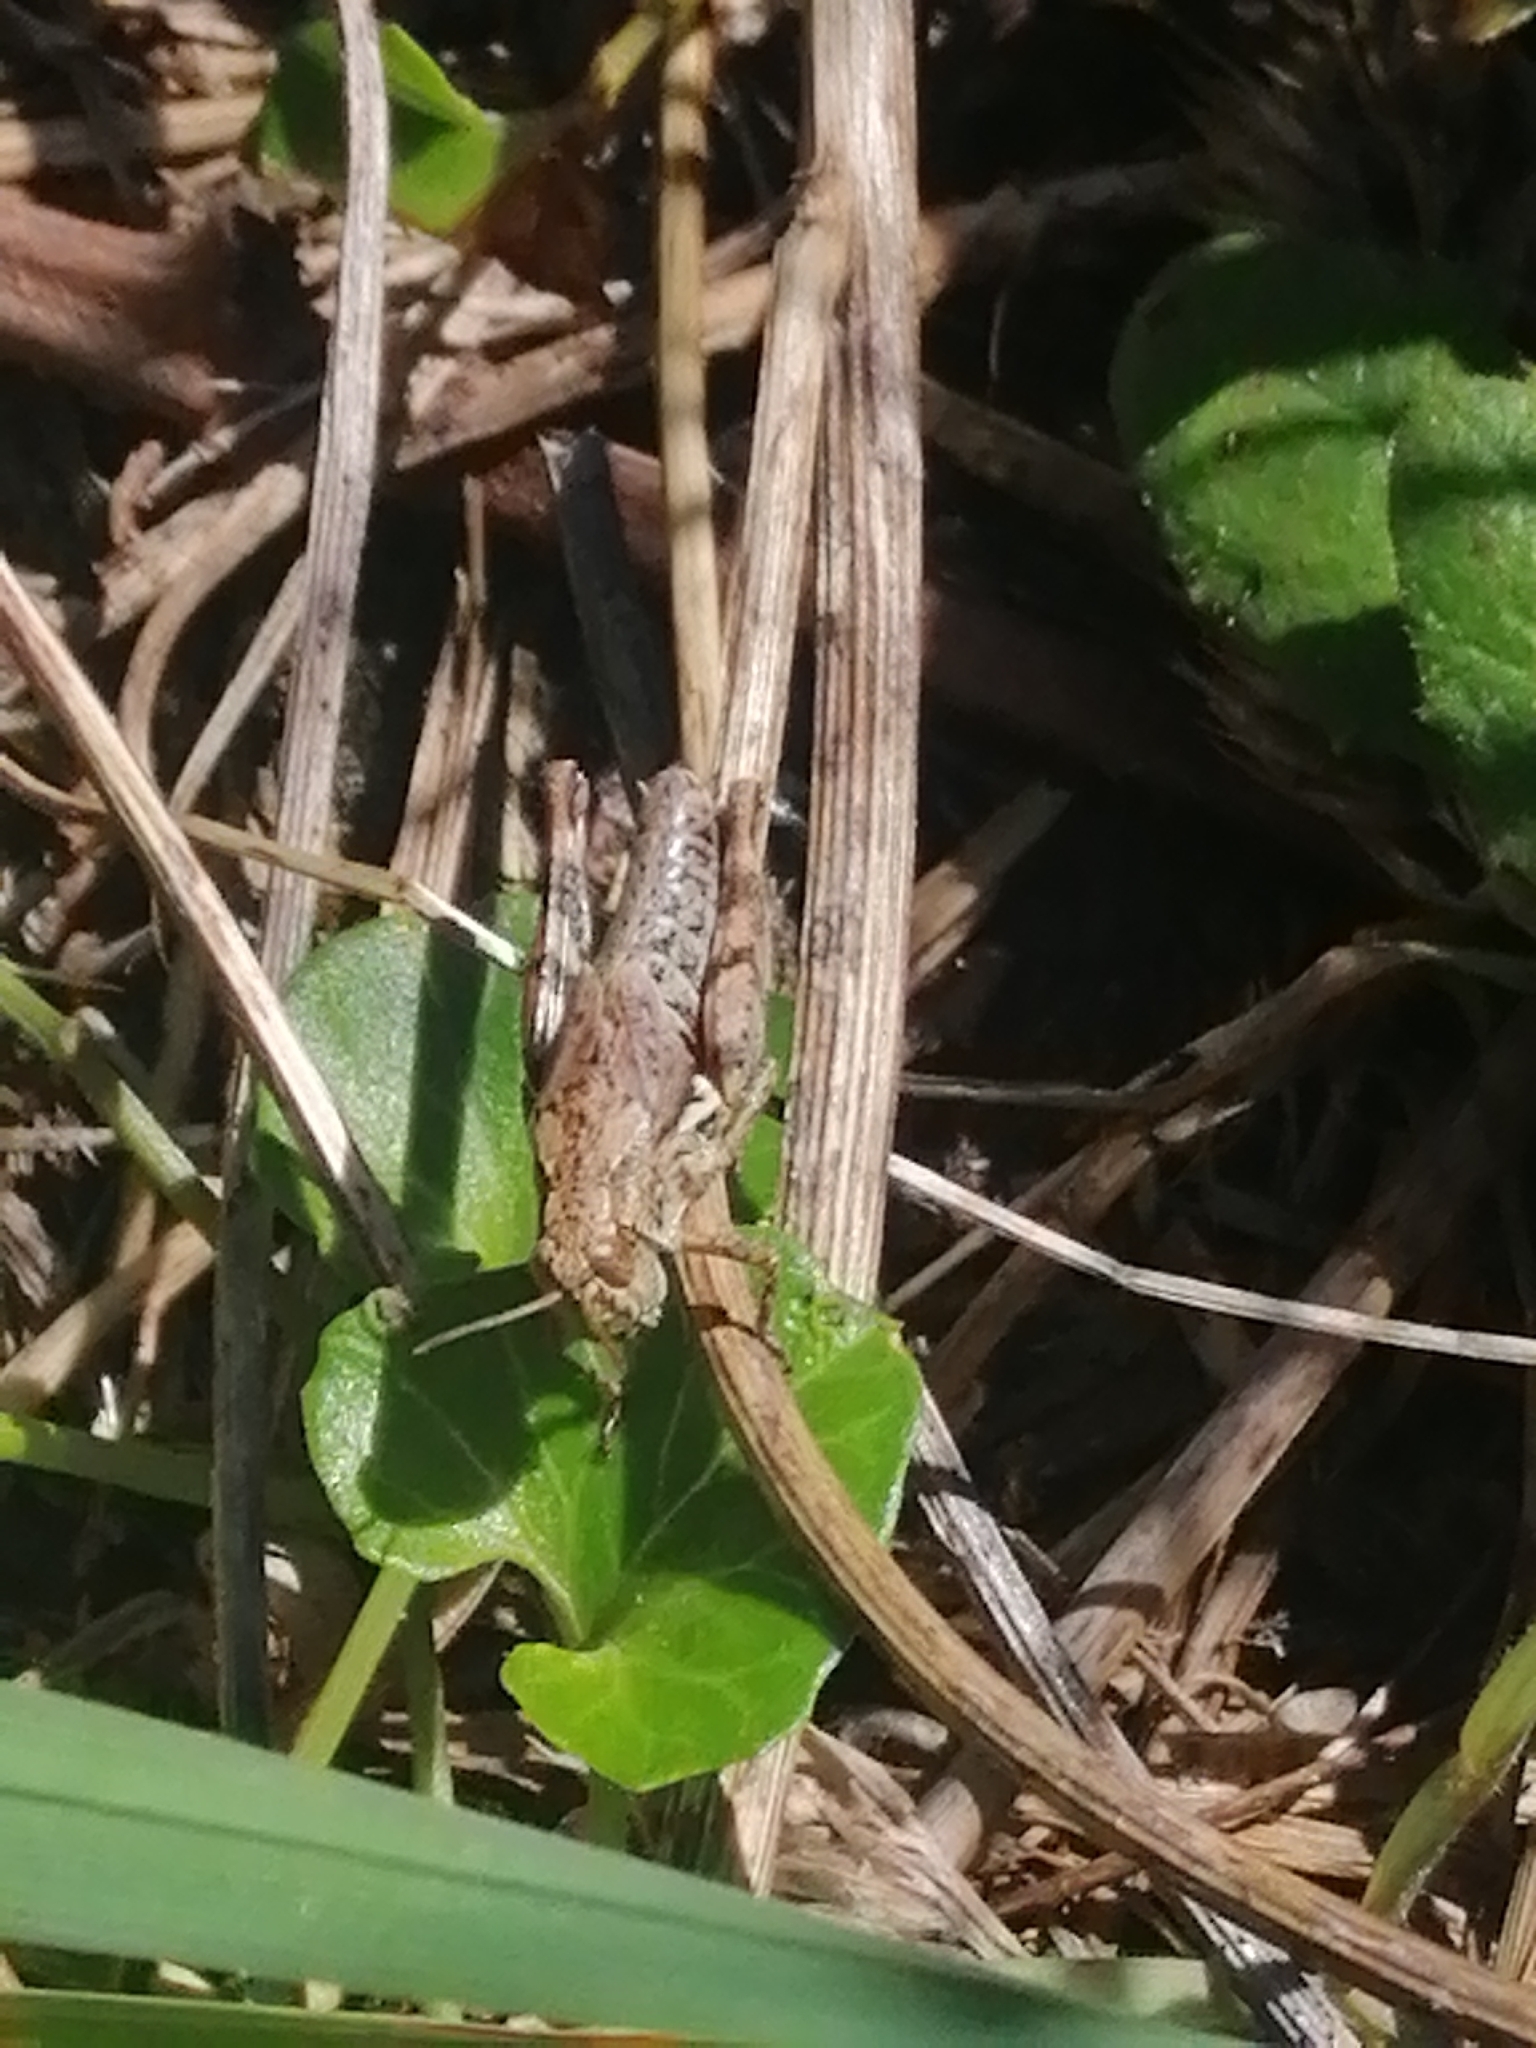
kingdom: Animalia
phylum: Arthropoda
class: Insecta
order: Orthoptera
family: Acrididae
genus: Phaulacridium
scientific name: Phaulacridium marginale
